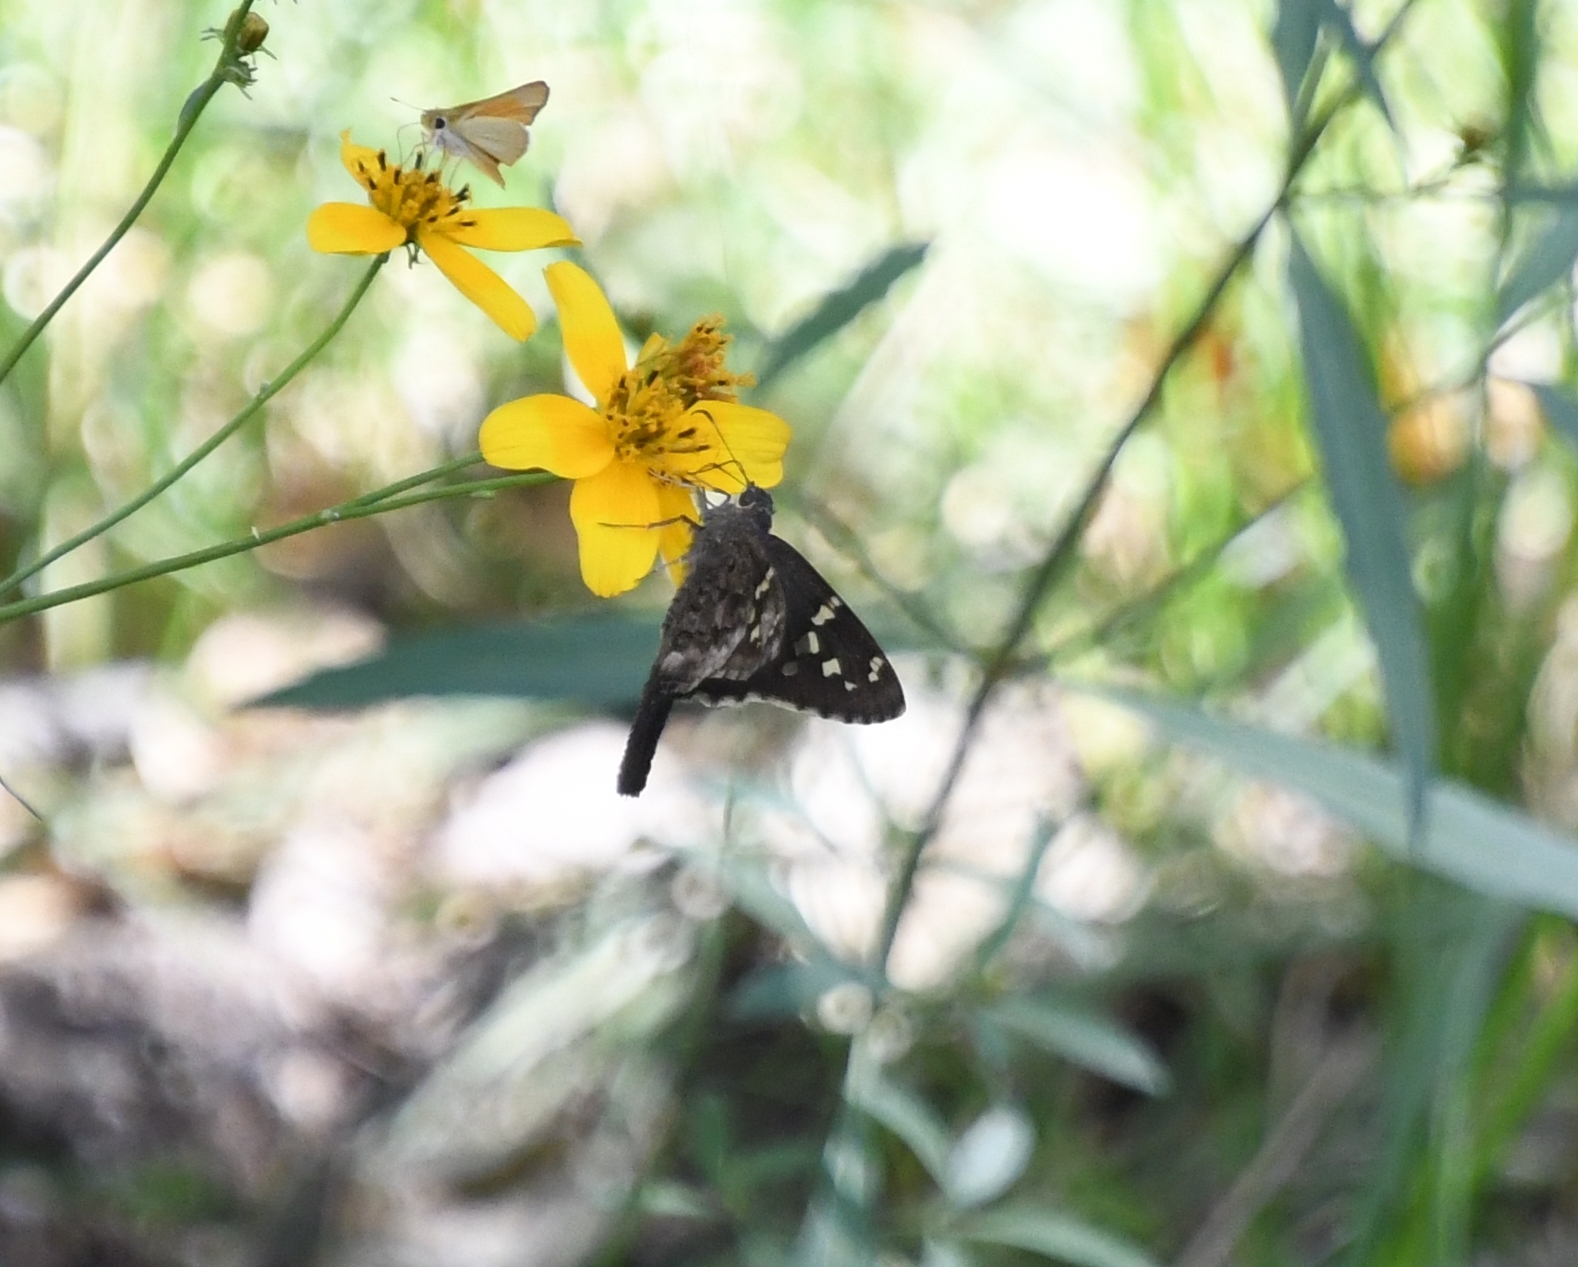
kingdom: Animalia
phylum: Arthropoda
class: Insecta
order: Lepidoptera
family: Hesperiidae
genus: Thorybes
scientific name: Thorybes
